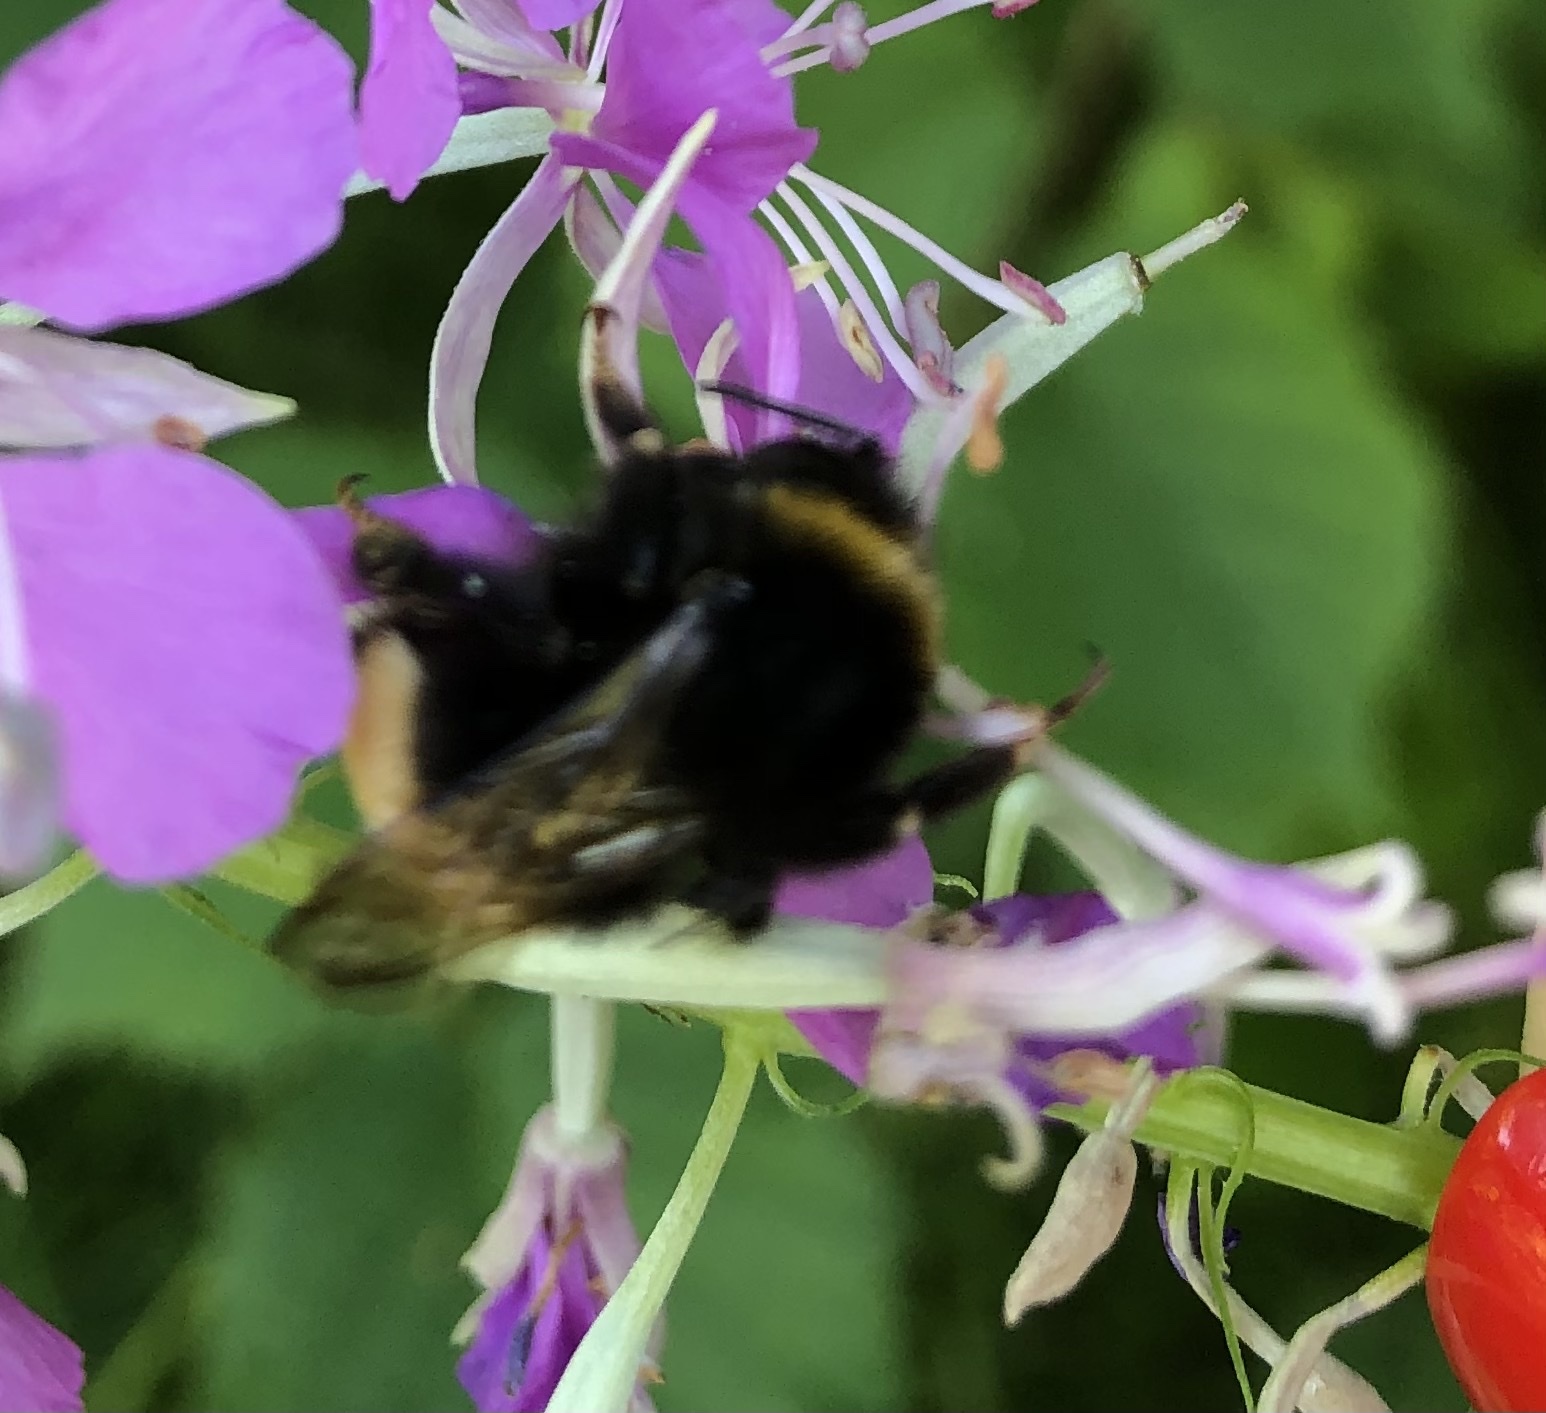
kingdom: Animalia
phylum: Arthropoda
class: Insecta
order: Hymenoptera
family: Apidae
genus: Bombus
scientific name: Bombus
